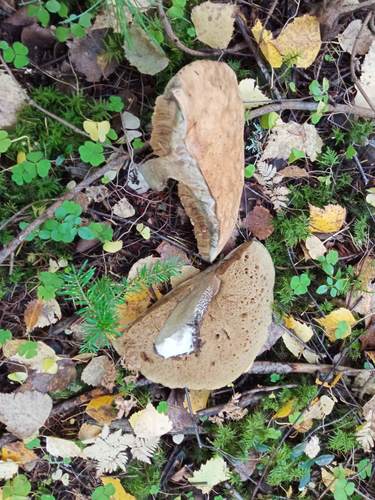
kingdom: Fungi
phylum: Basidiomycota
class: Agaricomycetes
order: Boletales
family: Boletaceae
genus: Leccinum
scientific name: Leccinum
